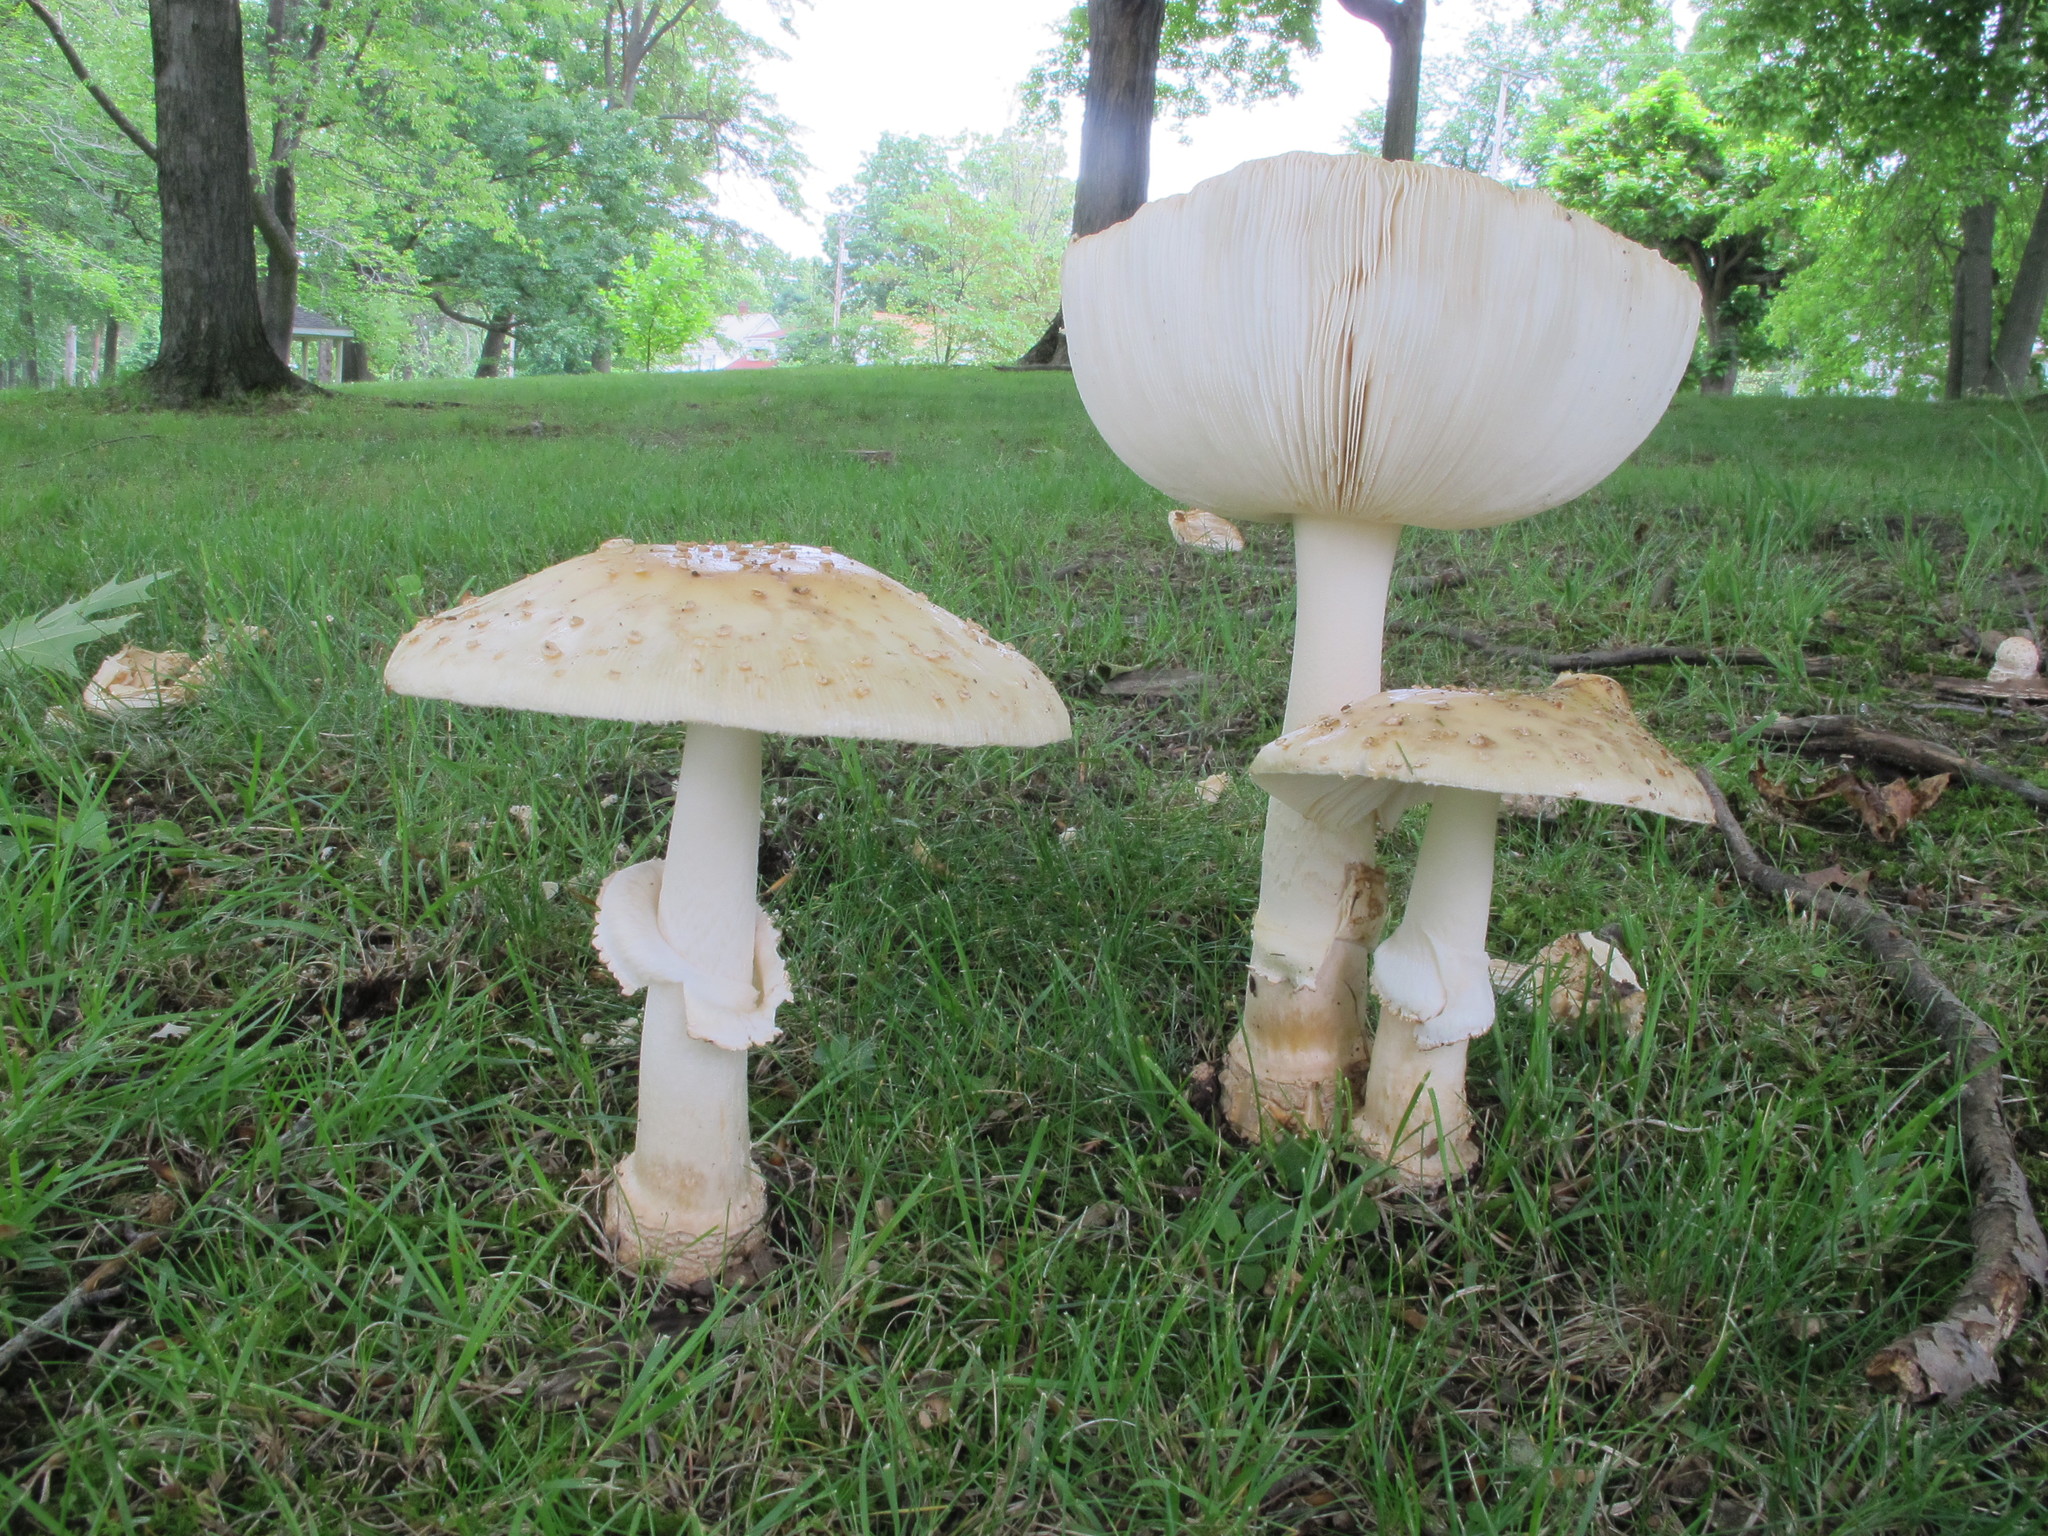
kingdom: Fungi
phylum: Basidiomycota
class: Agaricomycetes
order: Agaricales
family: Amanitaceae
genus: Amanita
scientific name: Amanita velatipes
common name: Great funnel-veil amanita
